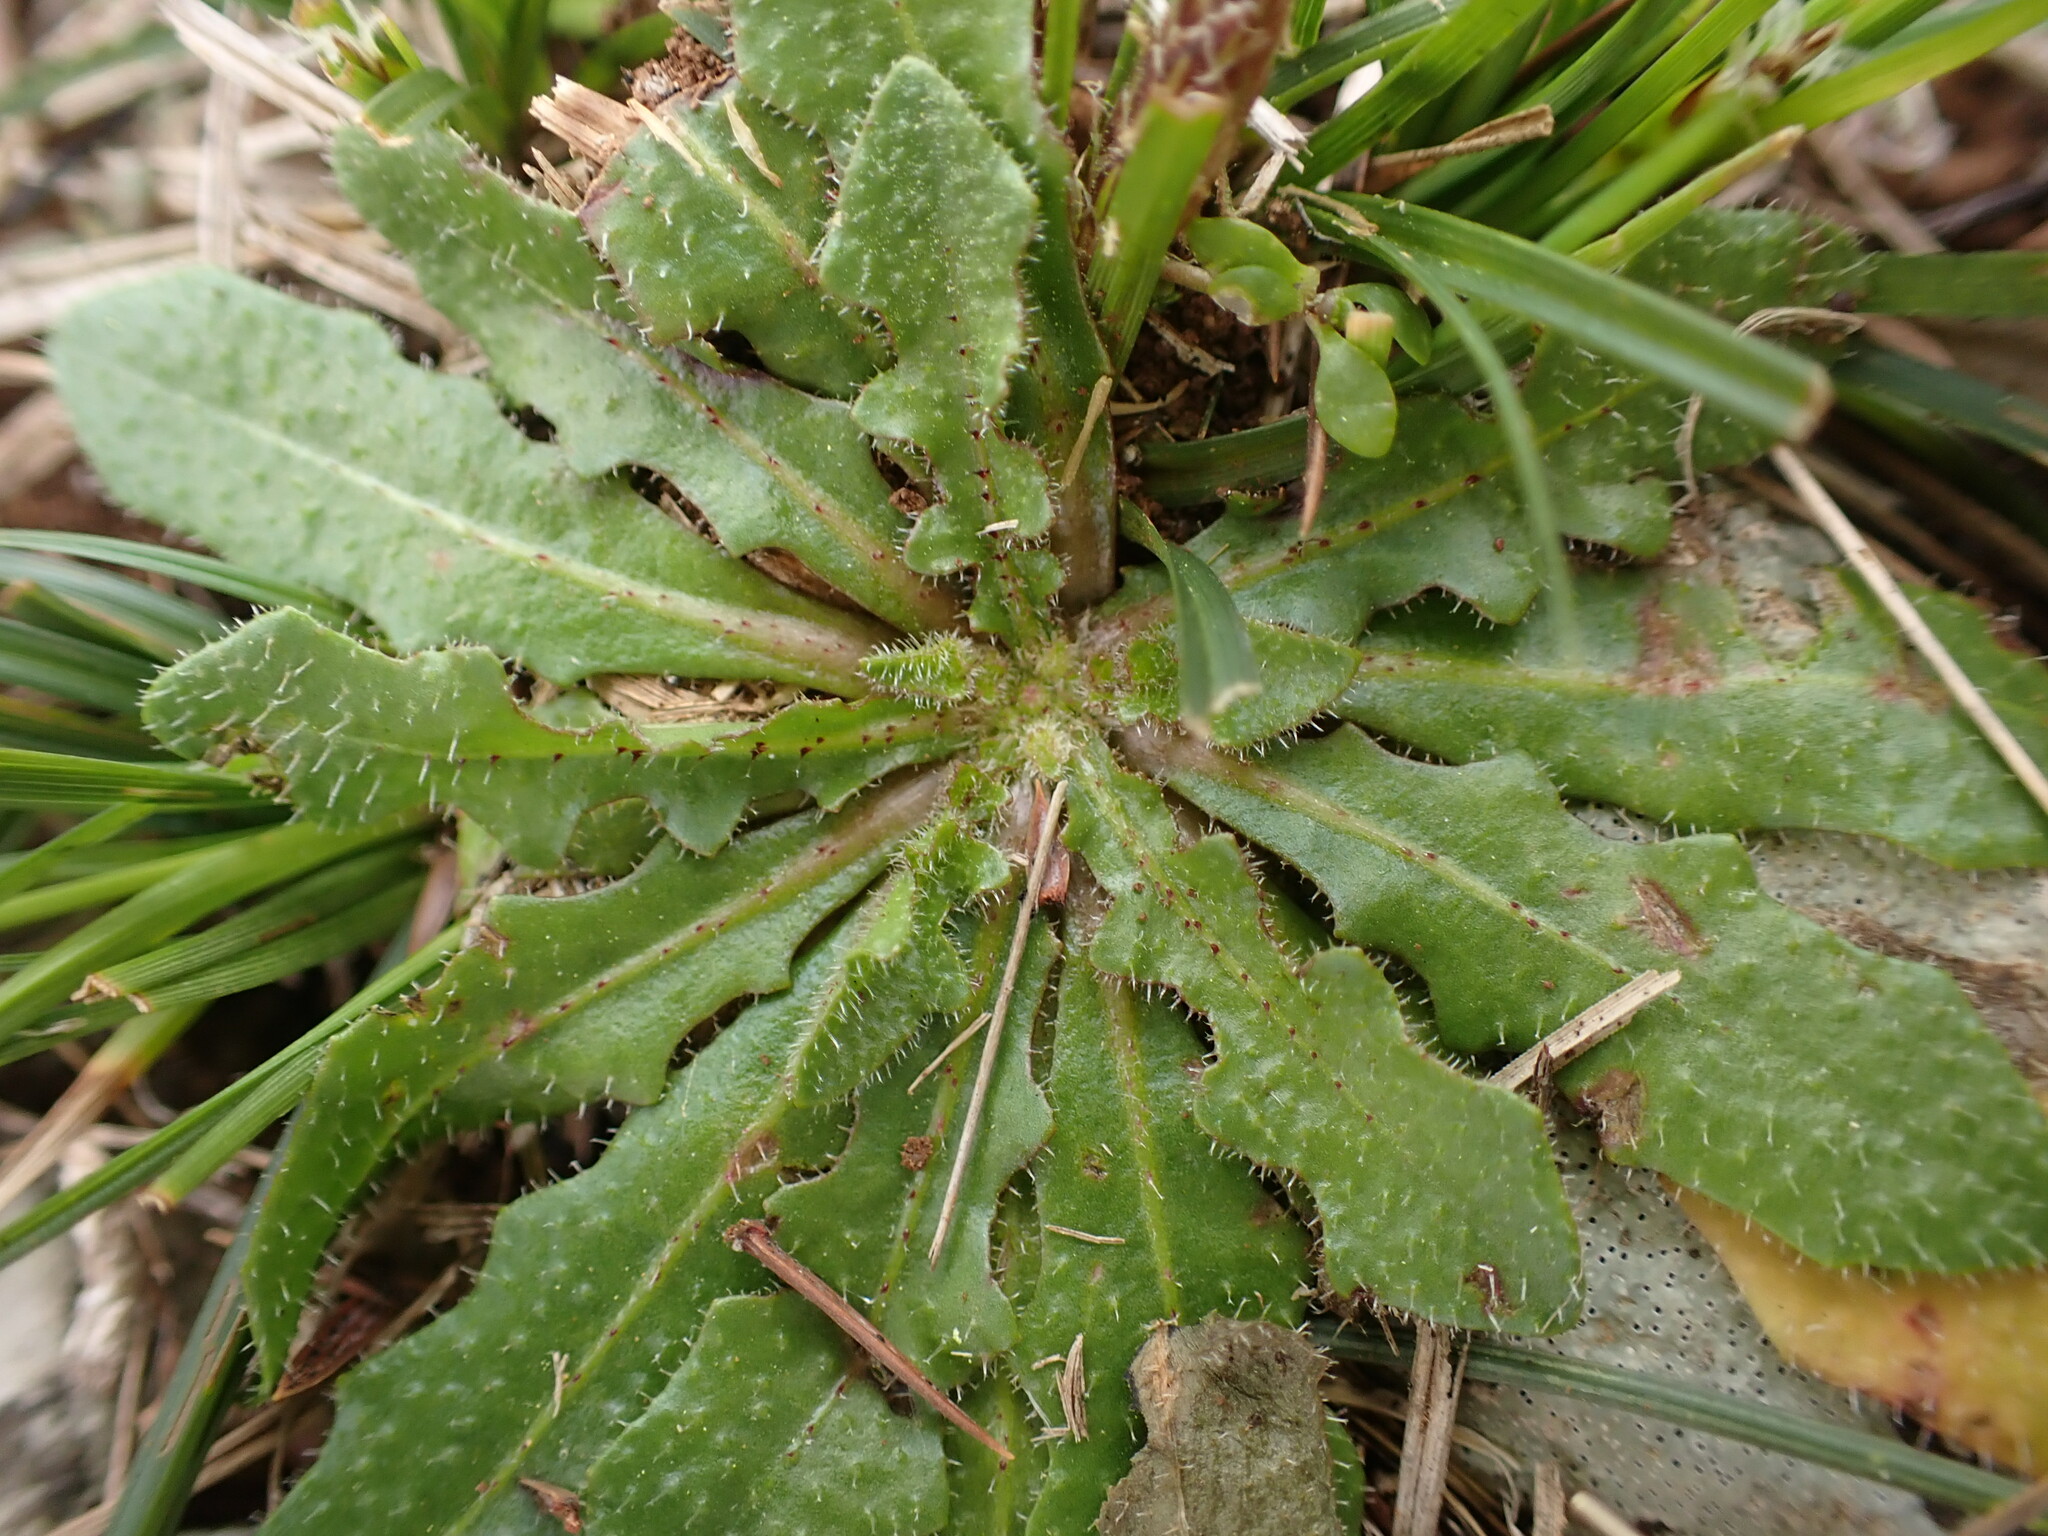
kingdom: Plantae
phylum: Tracheophyta
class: Magnoliopsida
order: Asterales
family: Asteraceae
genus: Hypochaeris
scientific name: Hypochaeris radicata
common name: Flatweed
